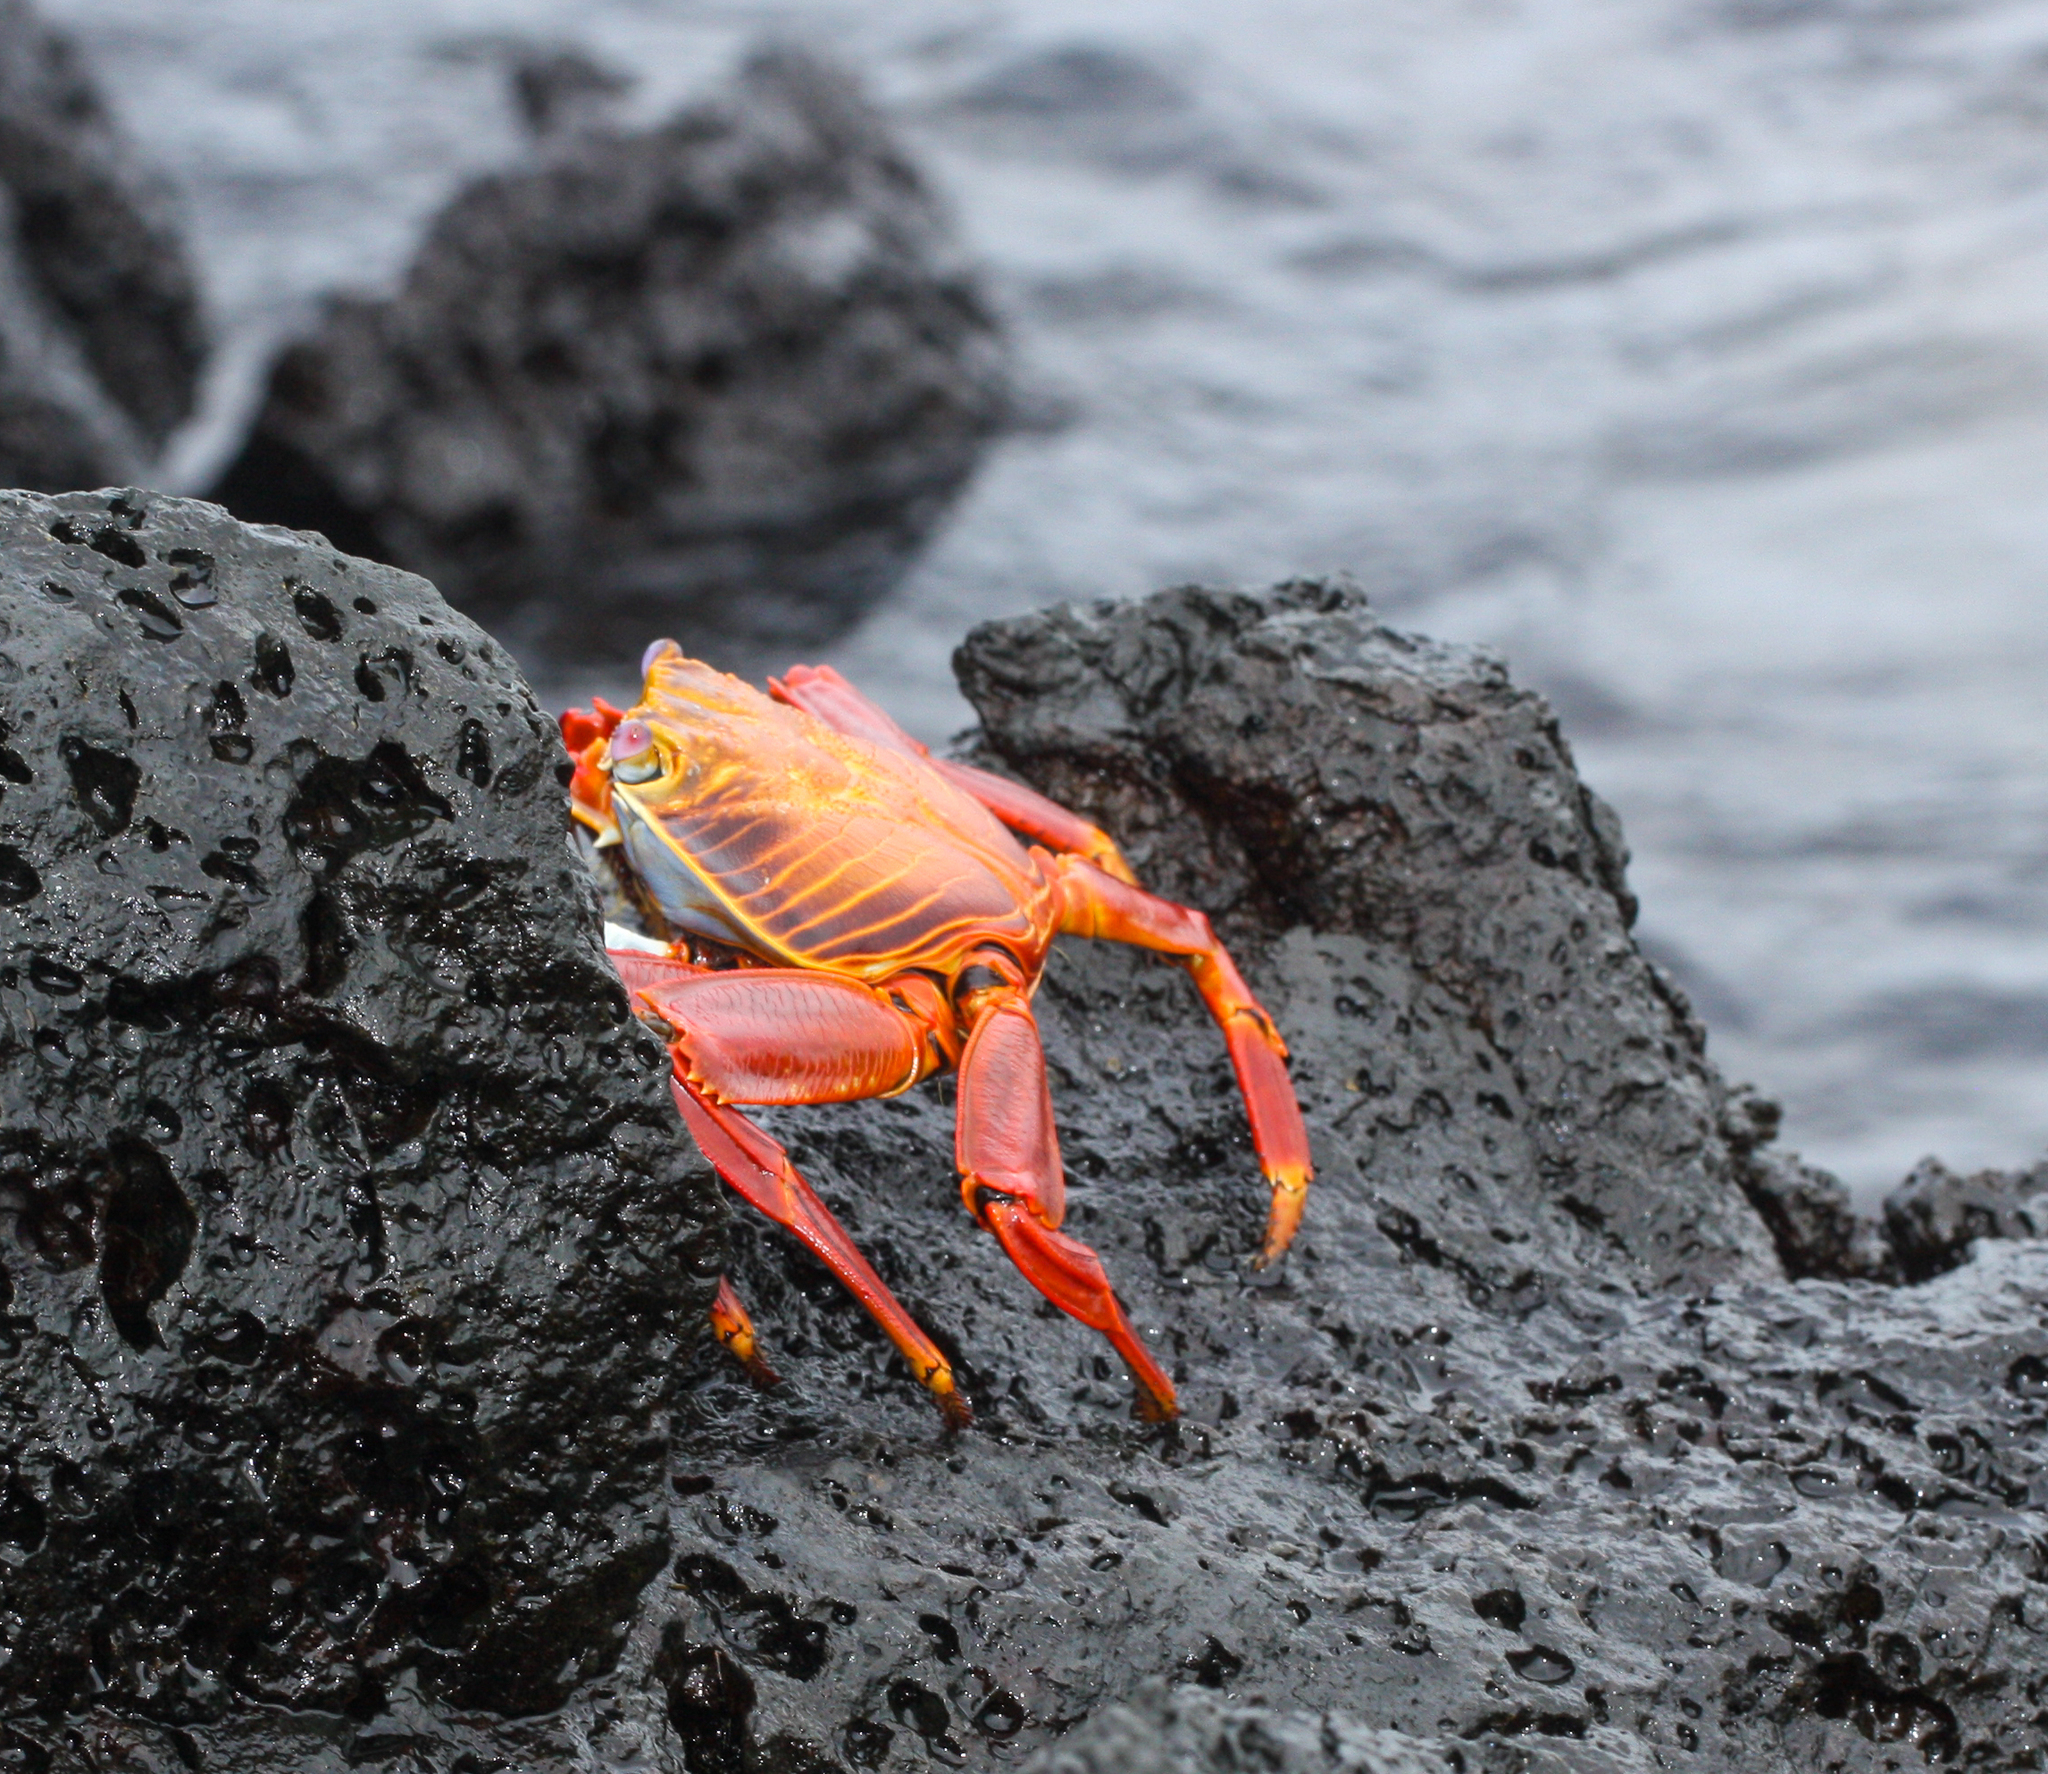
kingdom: Animalia
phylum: Arthropoda
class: Malacostraca
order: Decapoda
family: Grapsidae
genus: Grapsus
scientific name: Grapsus grapsus
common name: Sally lightfoot
